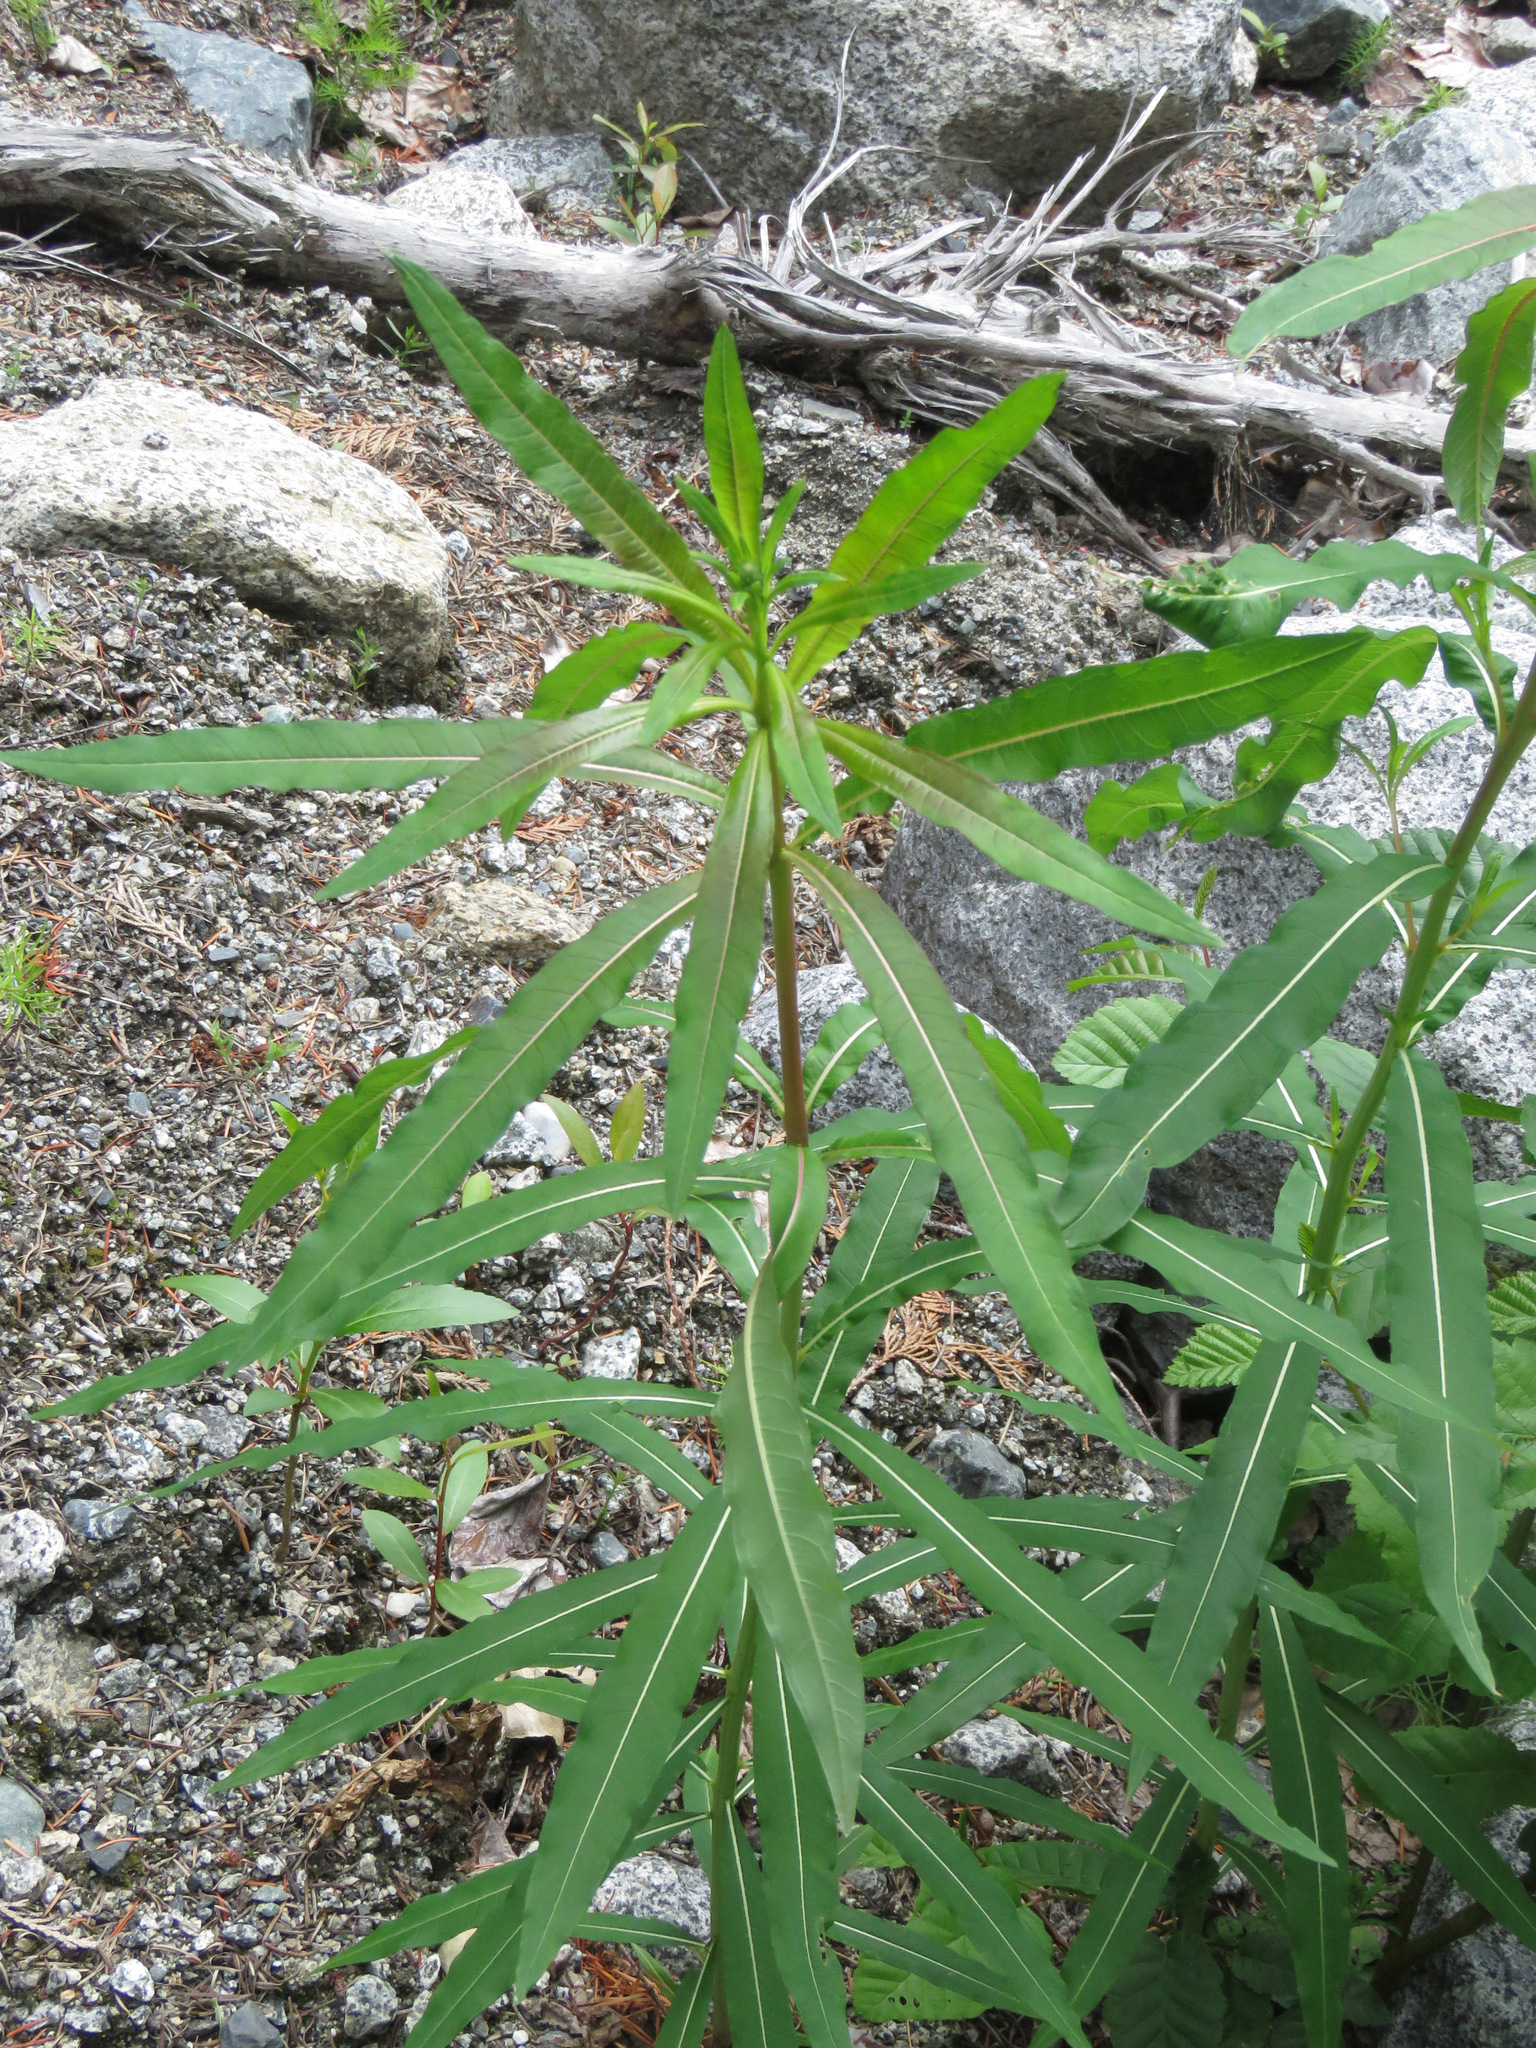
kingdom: Plantae
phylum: Tracheophyta
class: Magnoliopsida
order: Myrtales
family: Onagraceae
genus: Chamaenerion
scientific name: Chamaenerion angustifolium
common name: Fireweed
